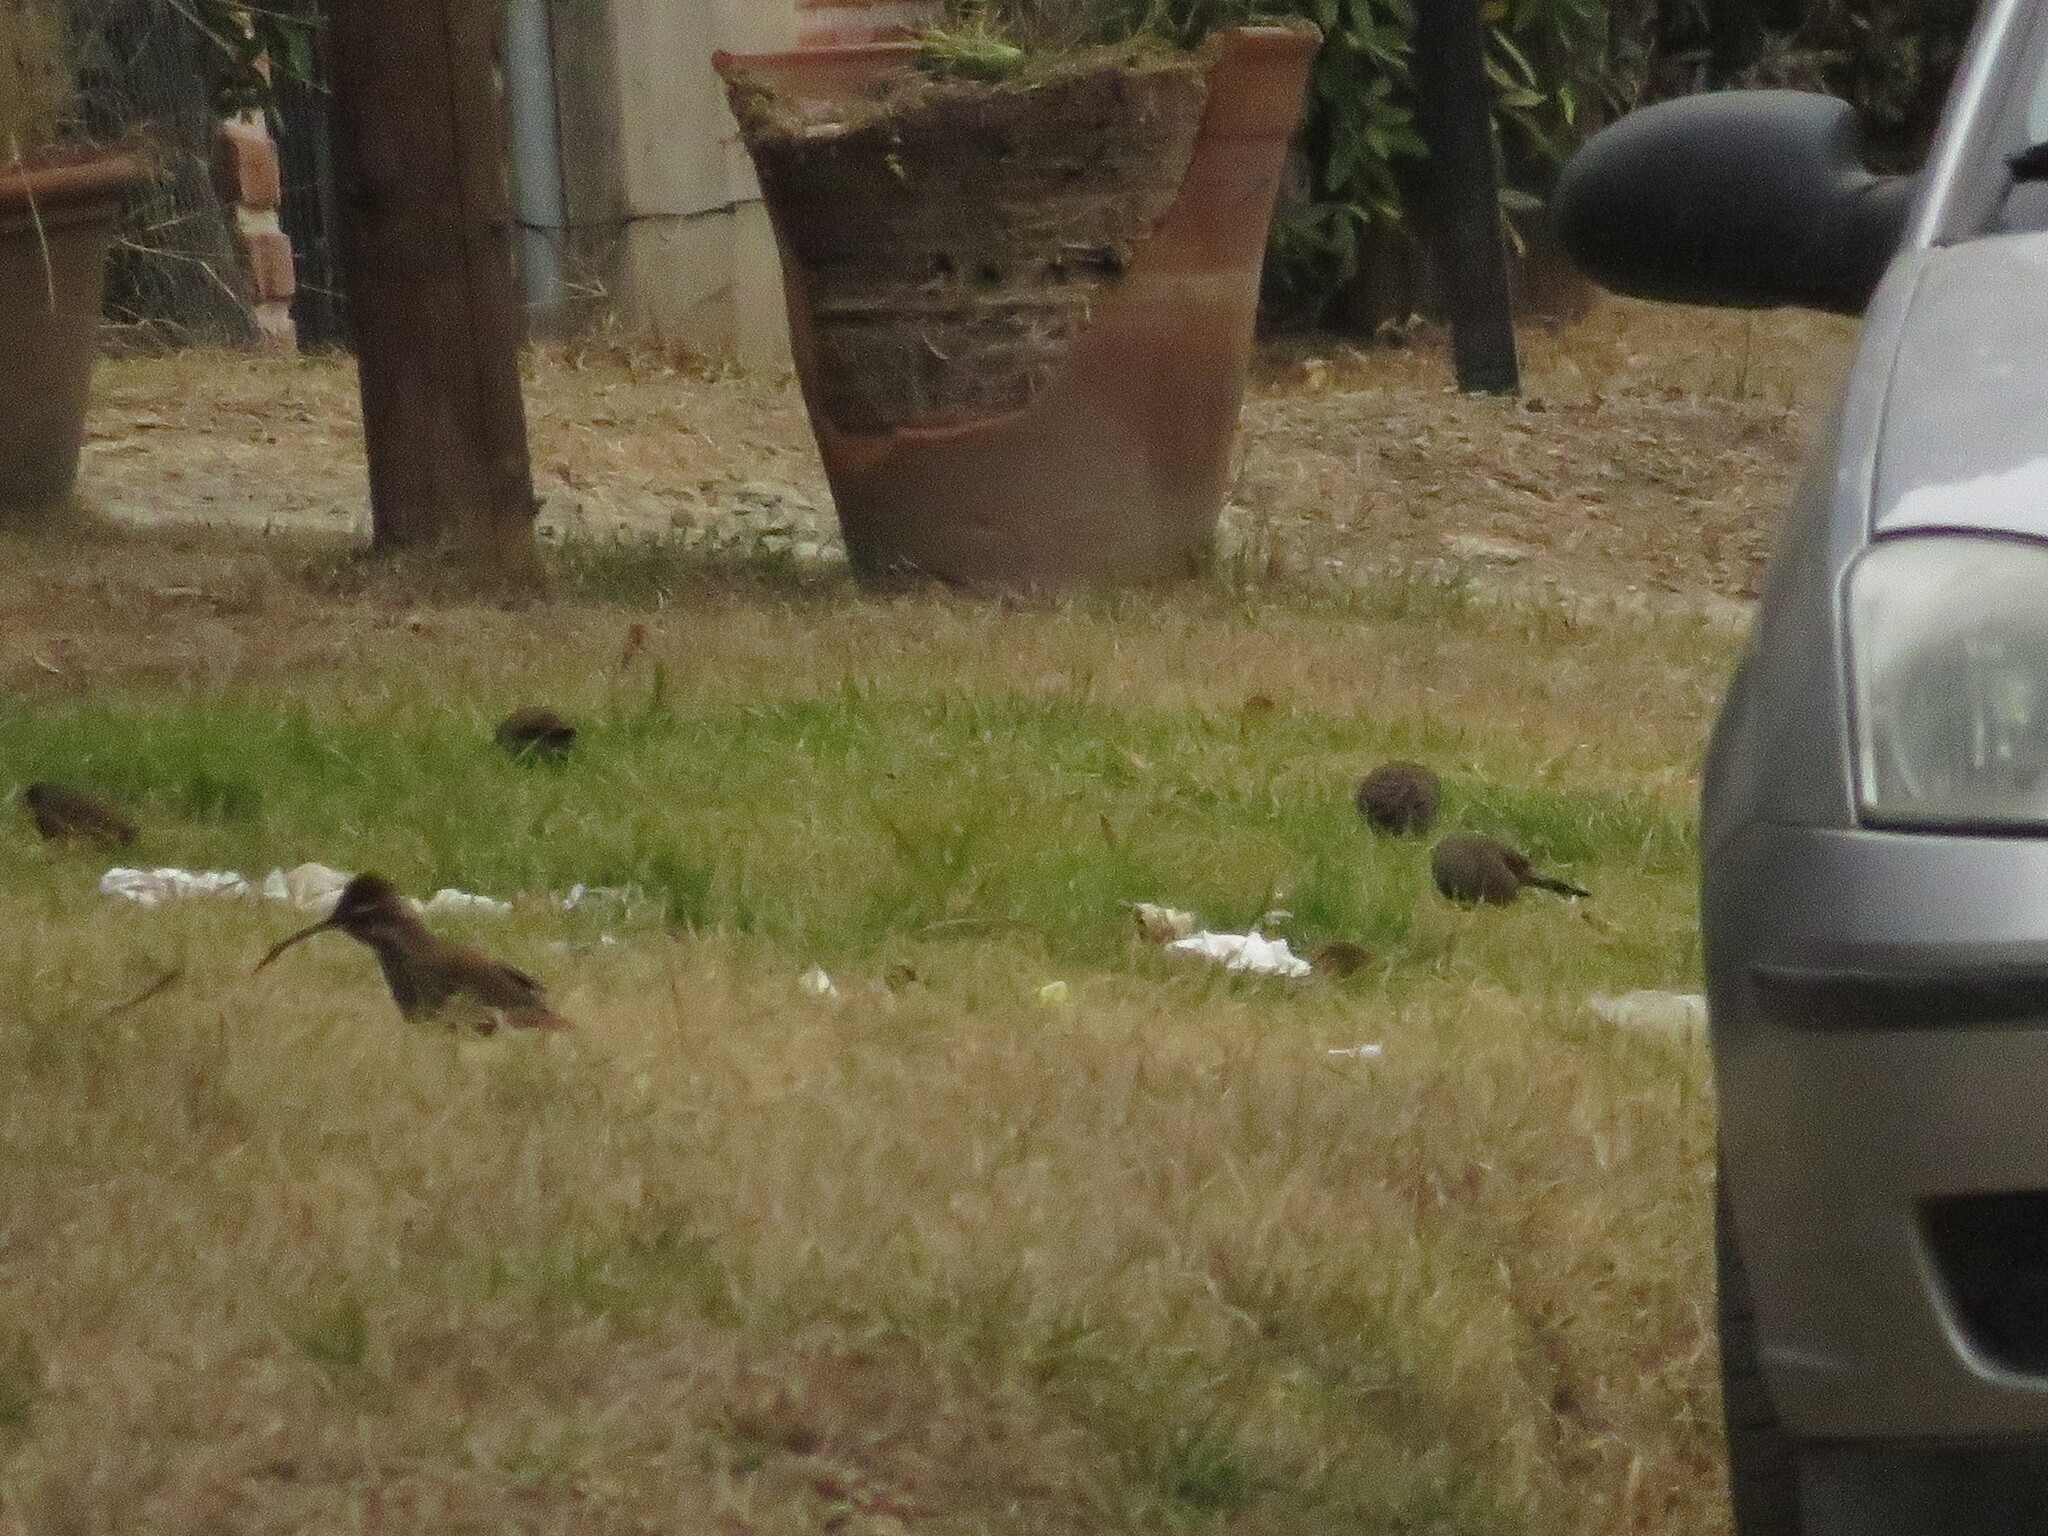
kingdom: Animalia
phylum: Chordata
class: Aves
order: Passeriformes
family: Furnariidae
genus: Drymornis
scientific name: Drymornis bridgesii
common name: Scimitar-billed woodcreeper
